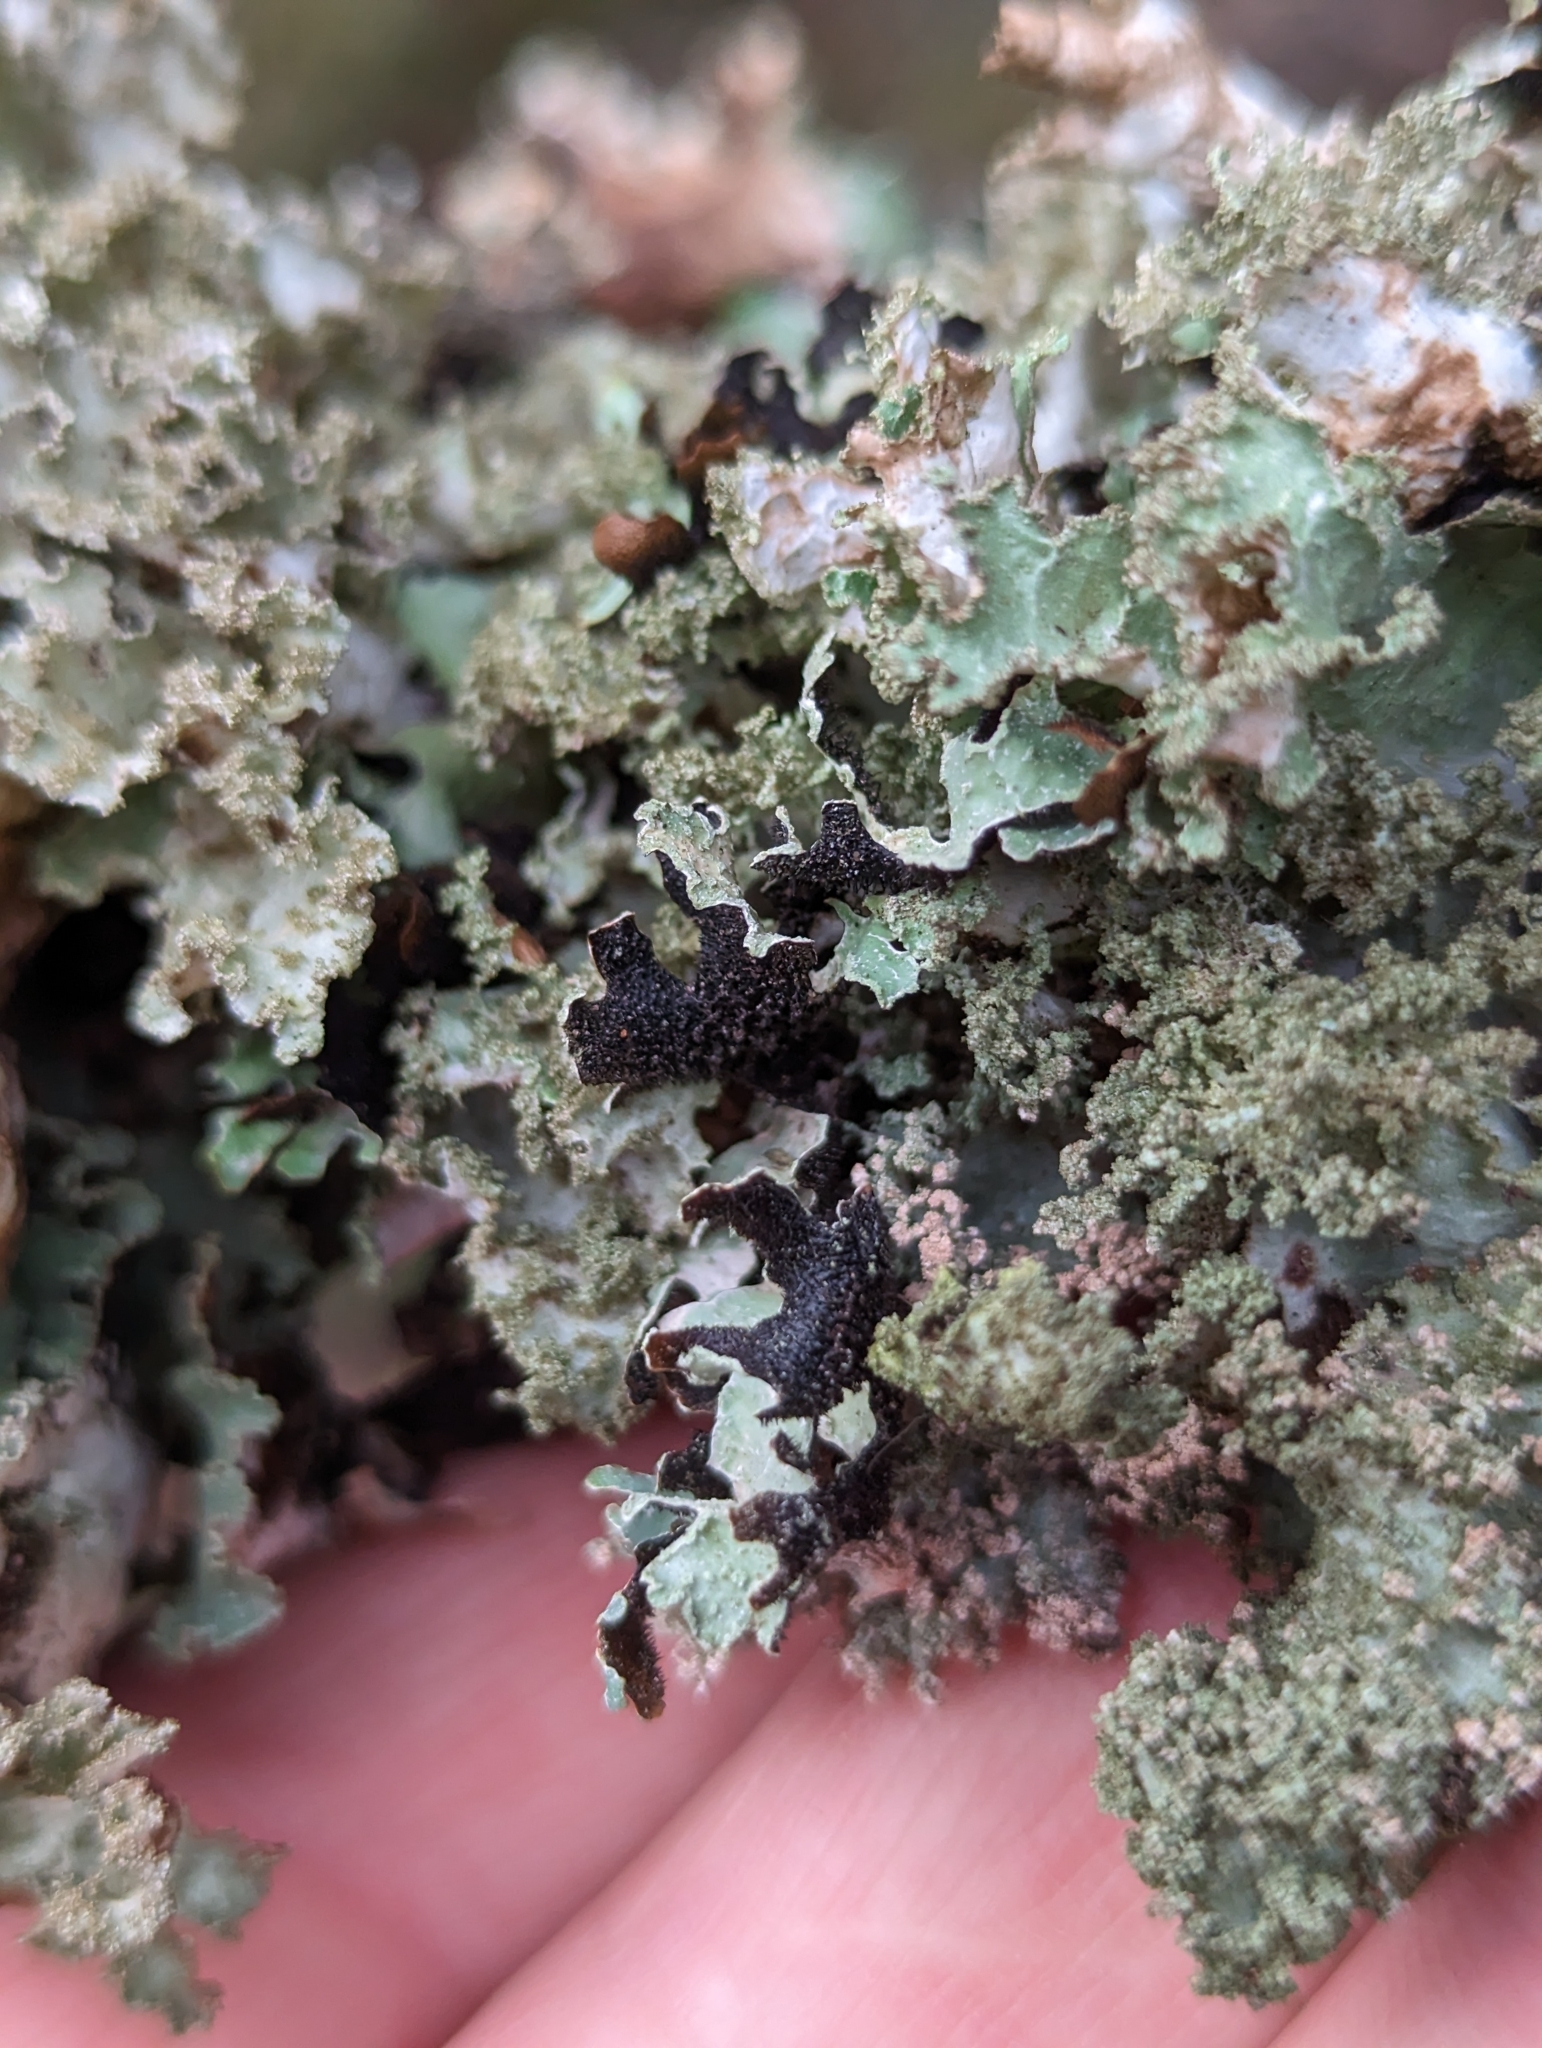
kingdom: Fungi
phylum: Ascomycota
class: Lecanoromycetes
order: Lecanorales
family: Parmeliaceae
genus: Platismatia
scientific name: Platismatia glauca
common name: Varied rag lichen
